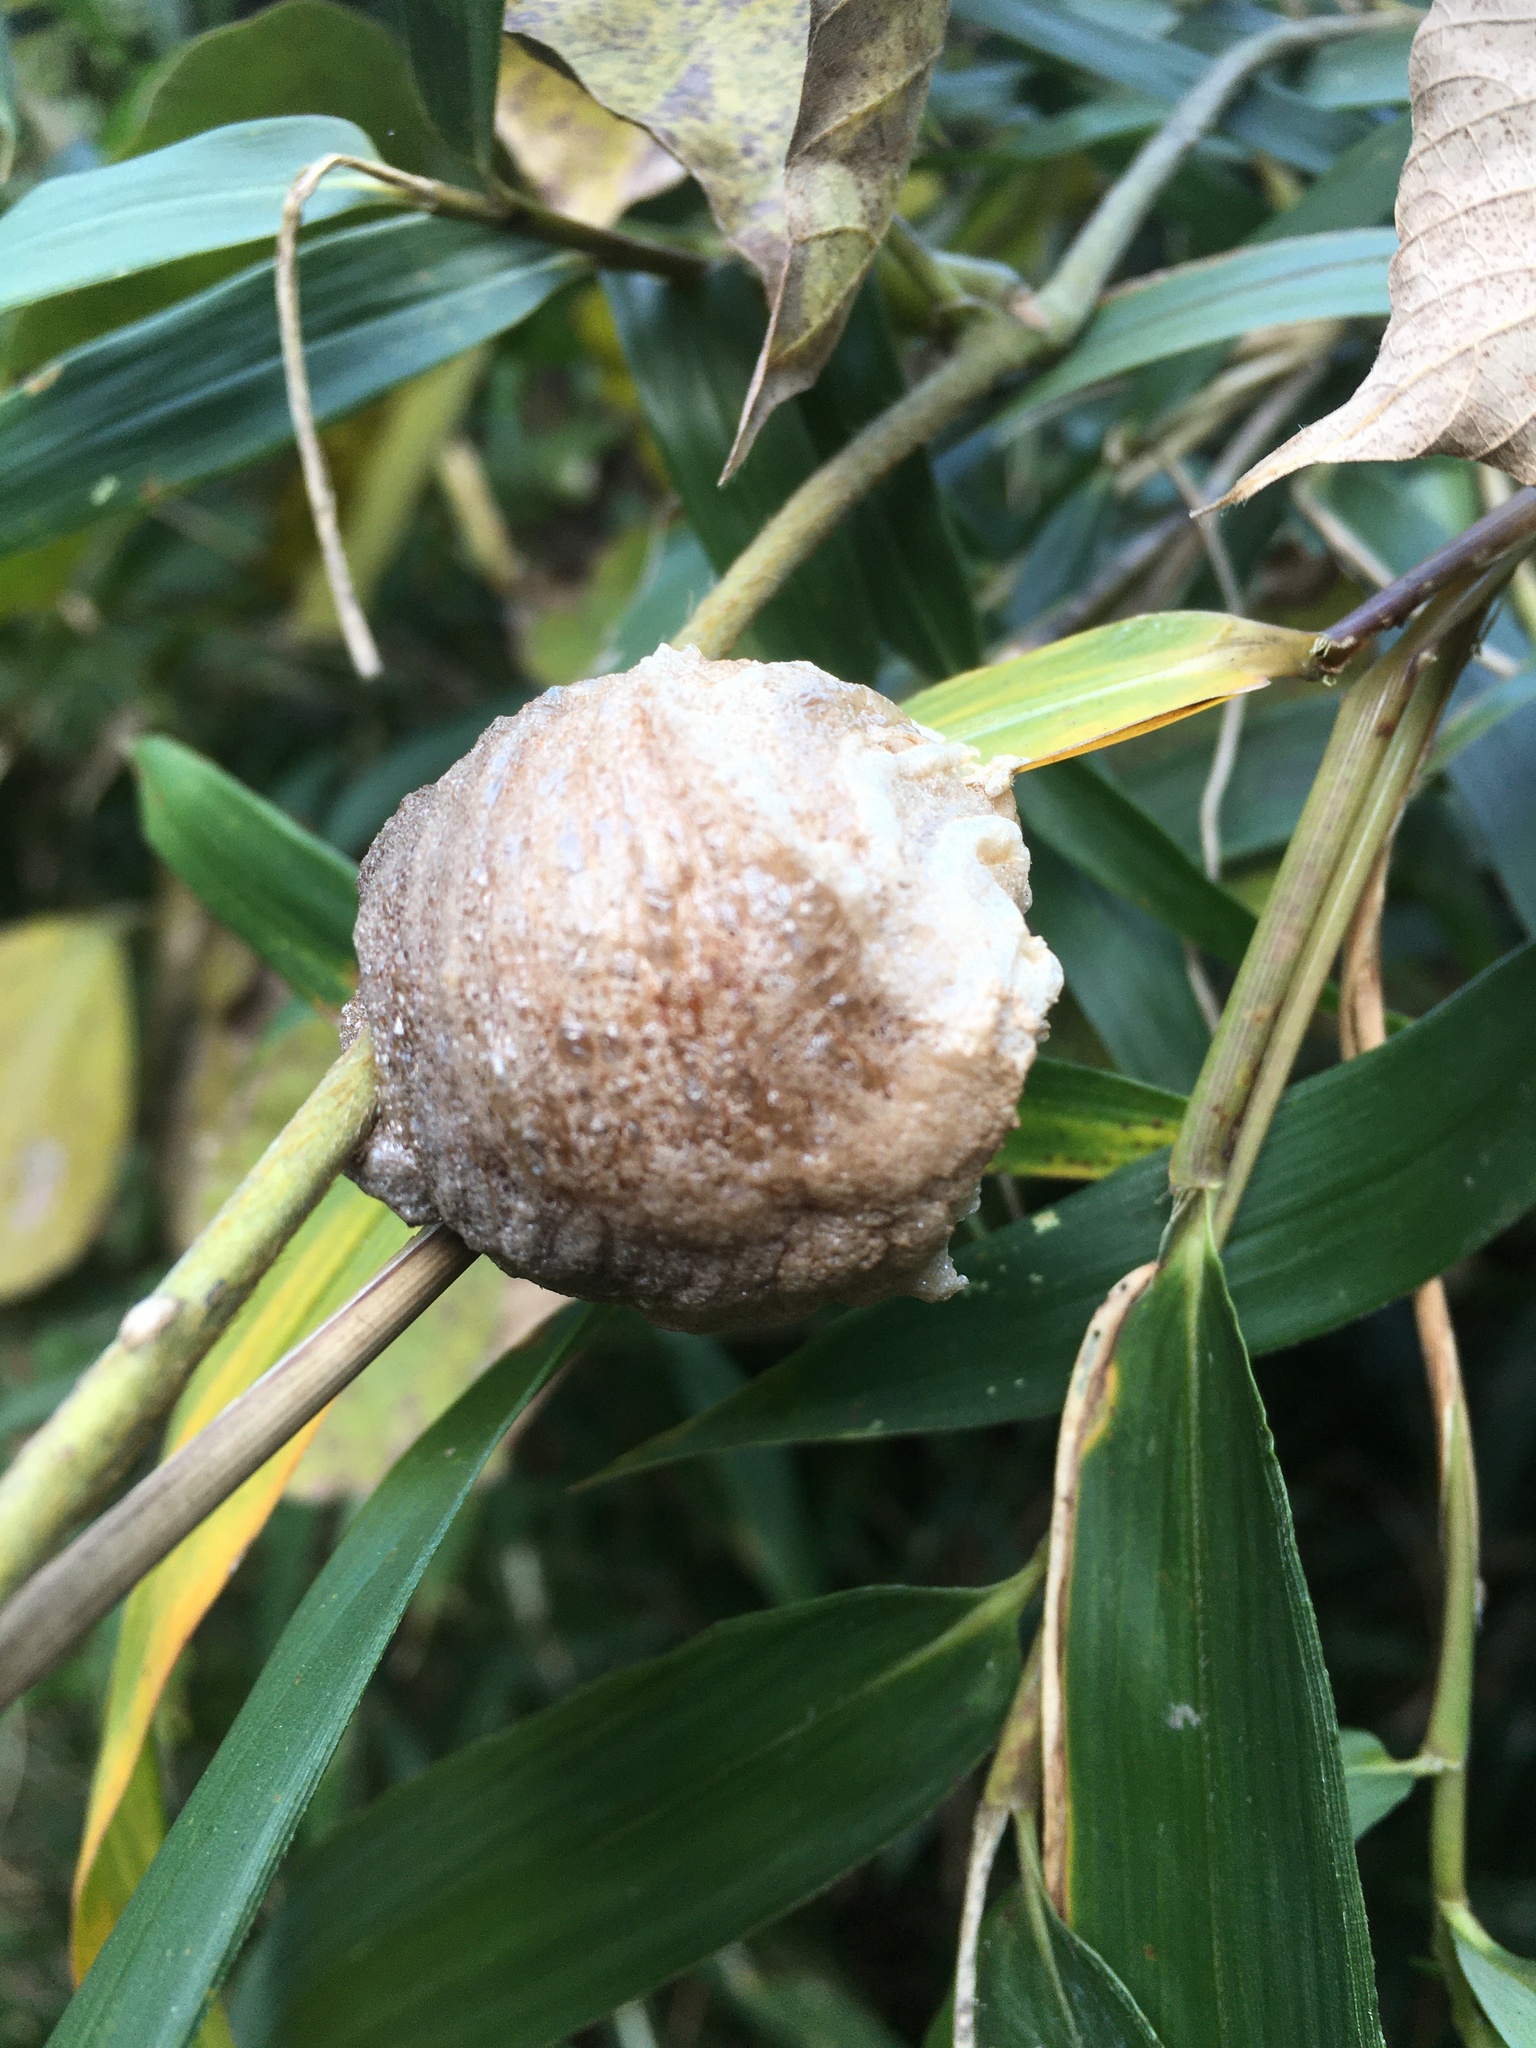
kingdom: Animalia
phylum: Arthropoda
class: Insecta
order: Mantodea
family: Mantidae
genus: Tenodera
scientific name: Tenodera sinensis
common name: Chinese mantis
